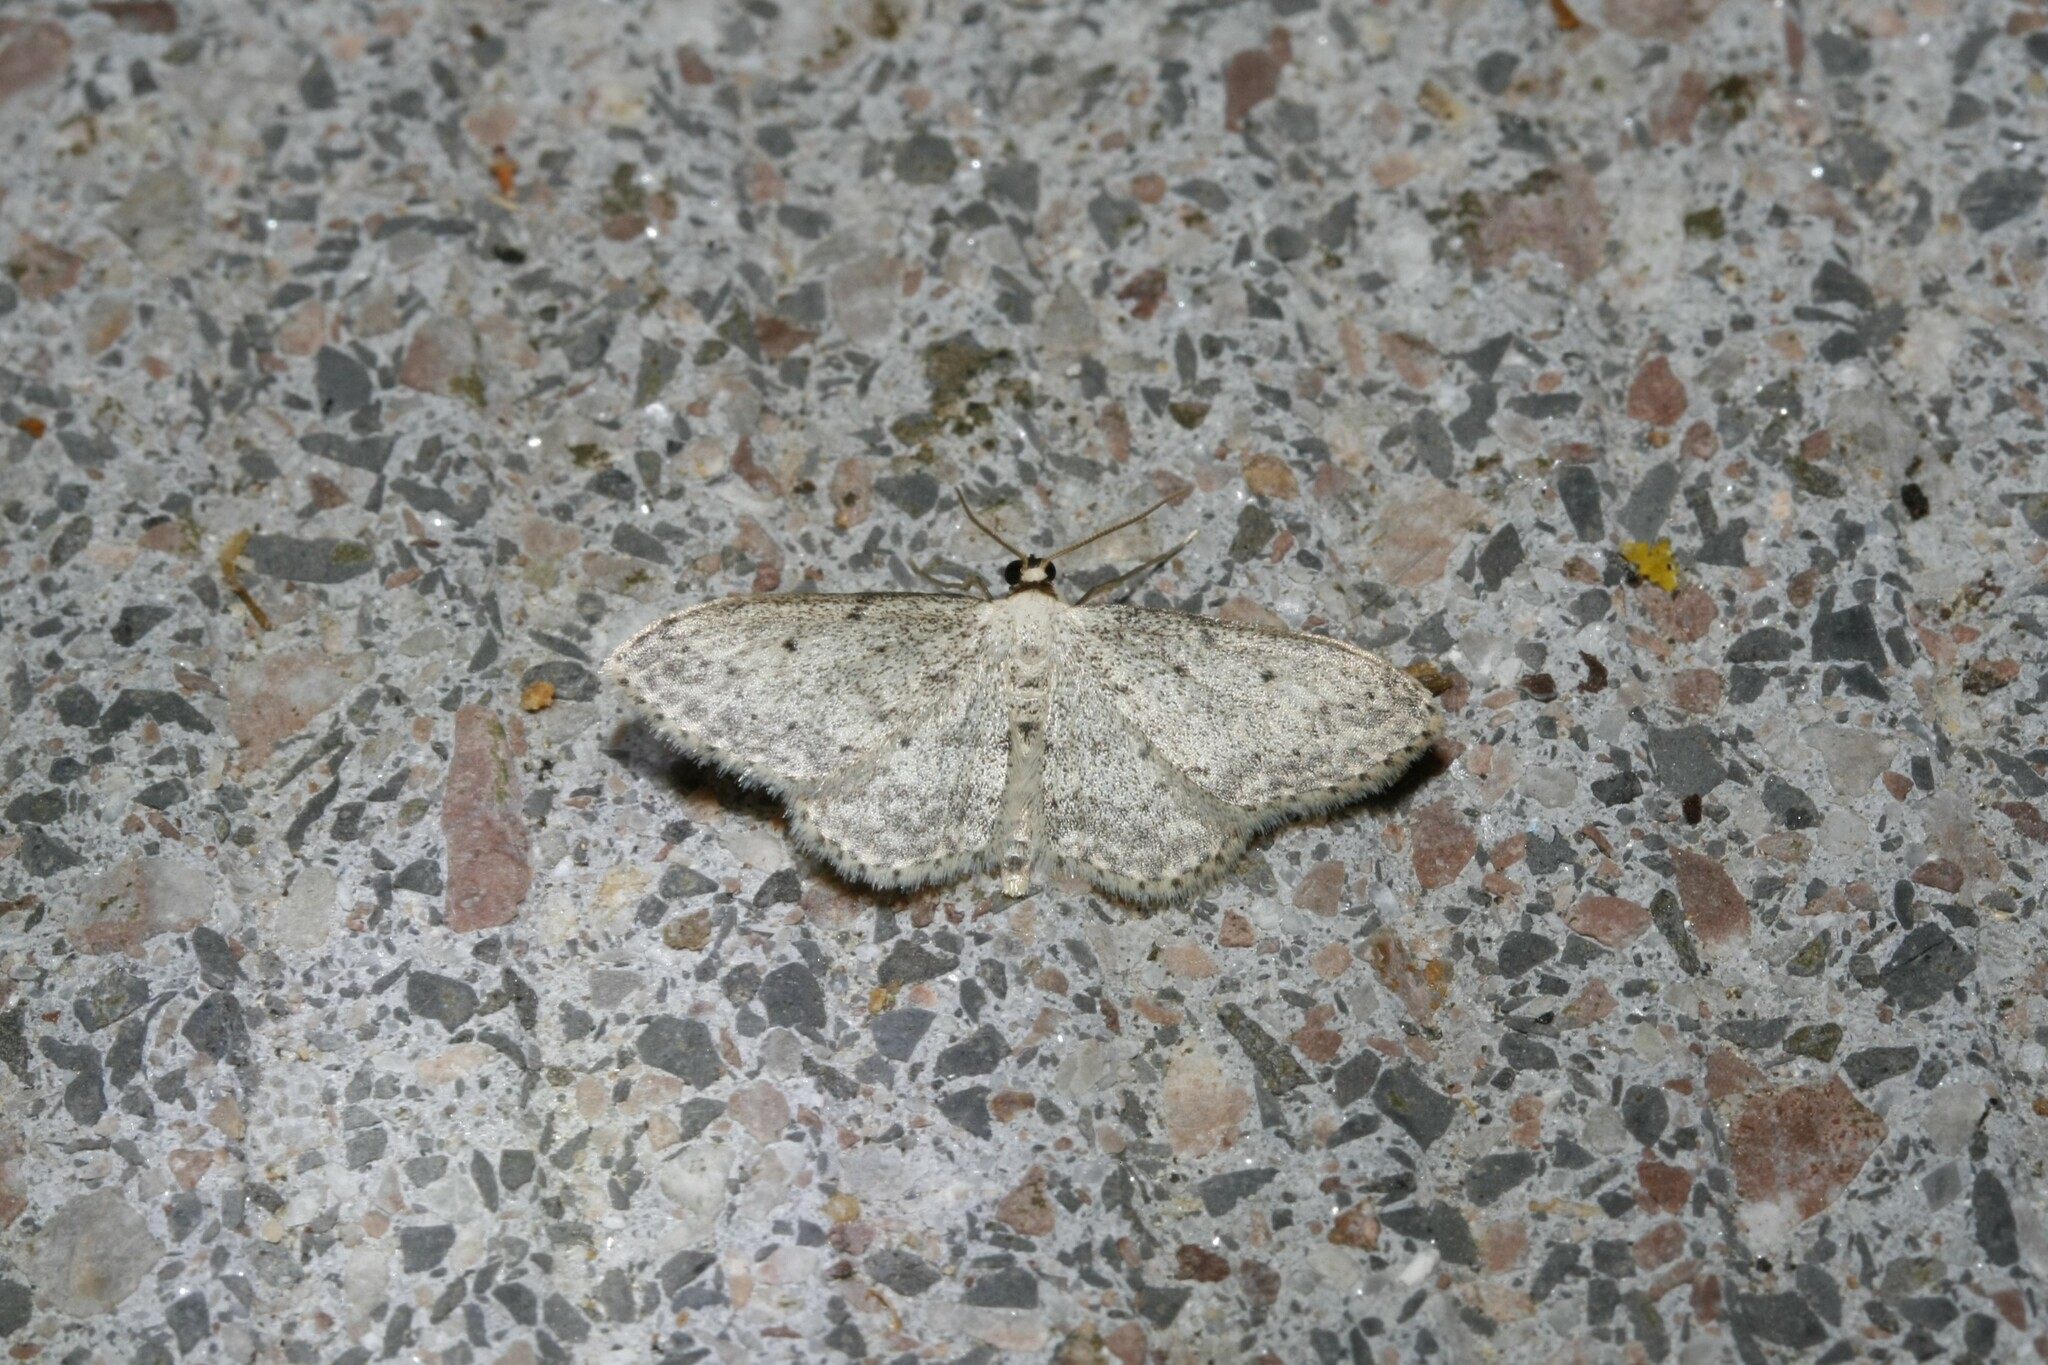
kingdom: Animalia
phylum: Arthropoda
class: Insecta
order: Lepidoptera
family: Geometridae
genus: Idaea
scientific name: Idaea seriata
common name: Small dusty wave
